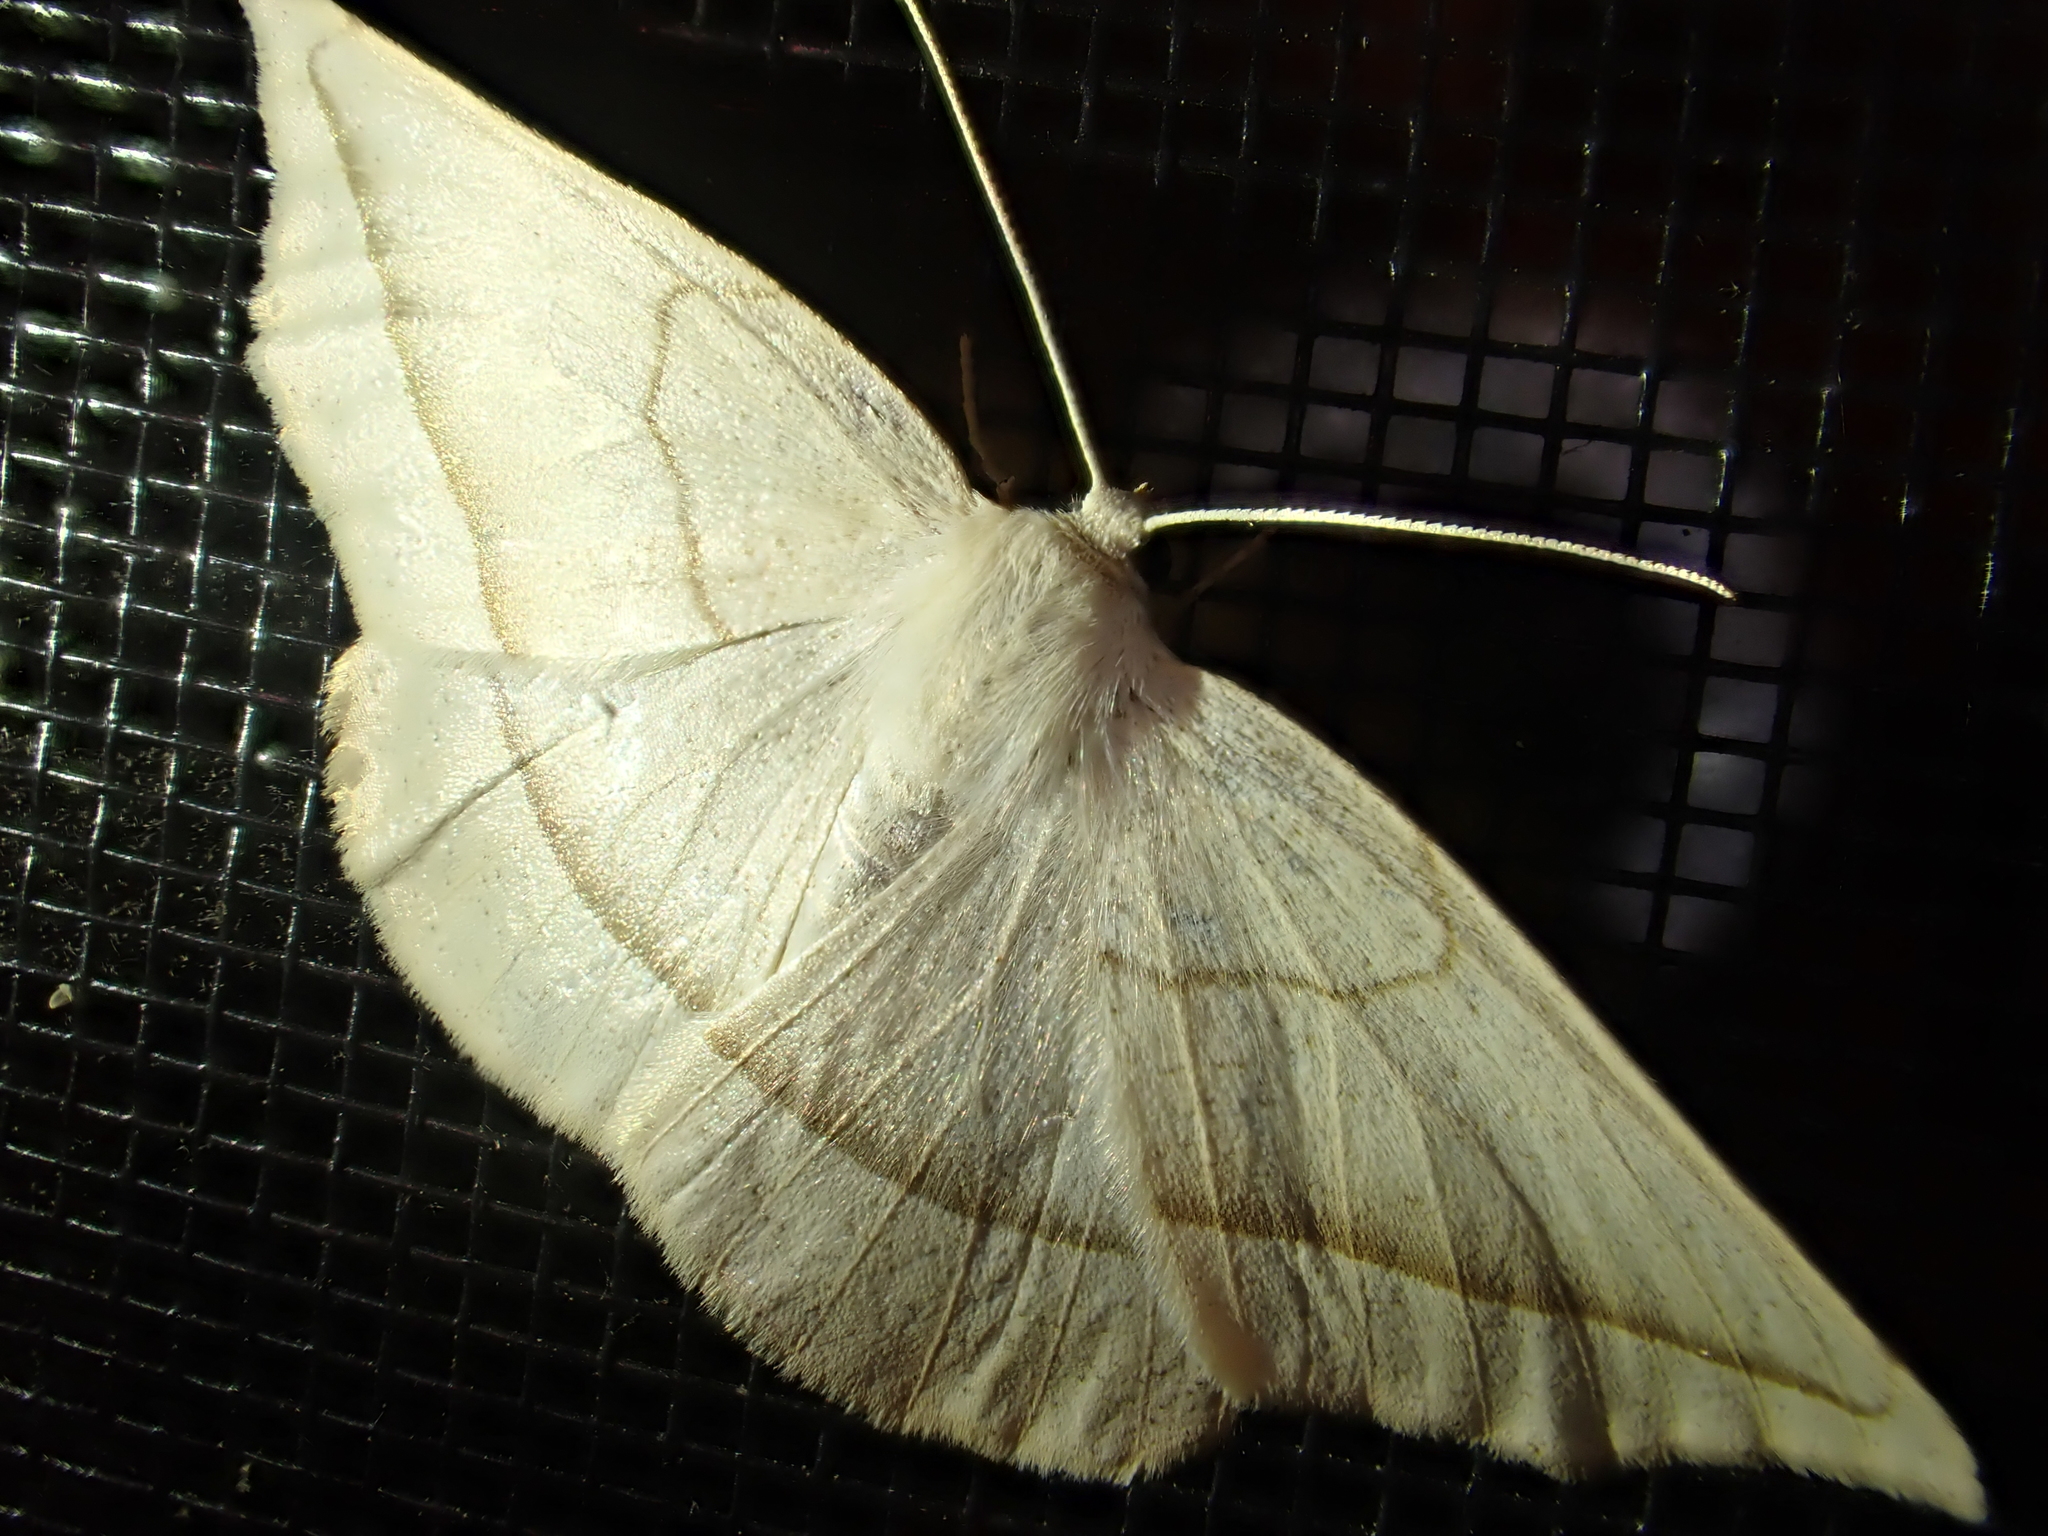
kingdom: Animalia
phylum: Arthropoda
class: Insecta
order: Lepidoptera
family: Geometridae
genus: Eusarca
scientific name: Eusarca confusaria
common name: Confused eusarca
